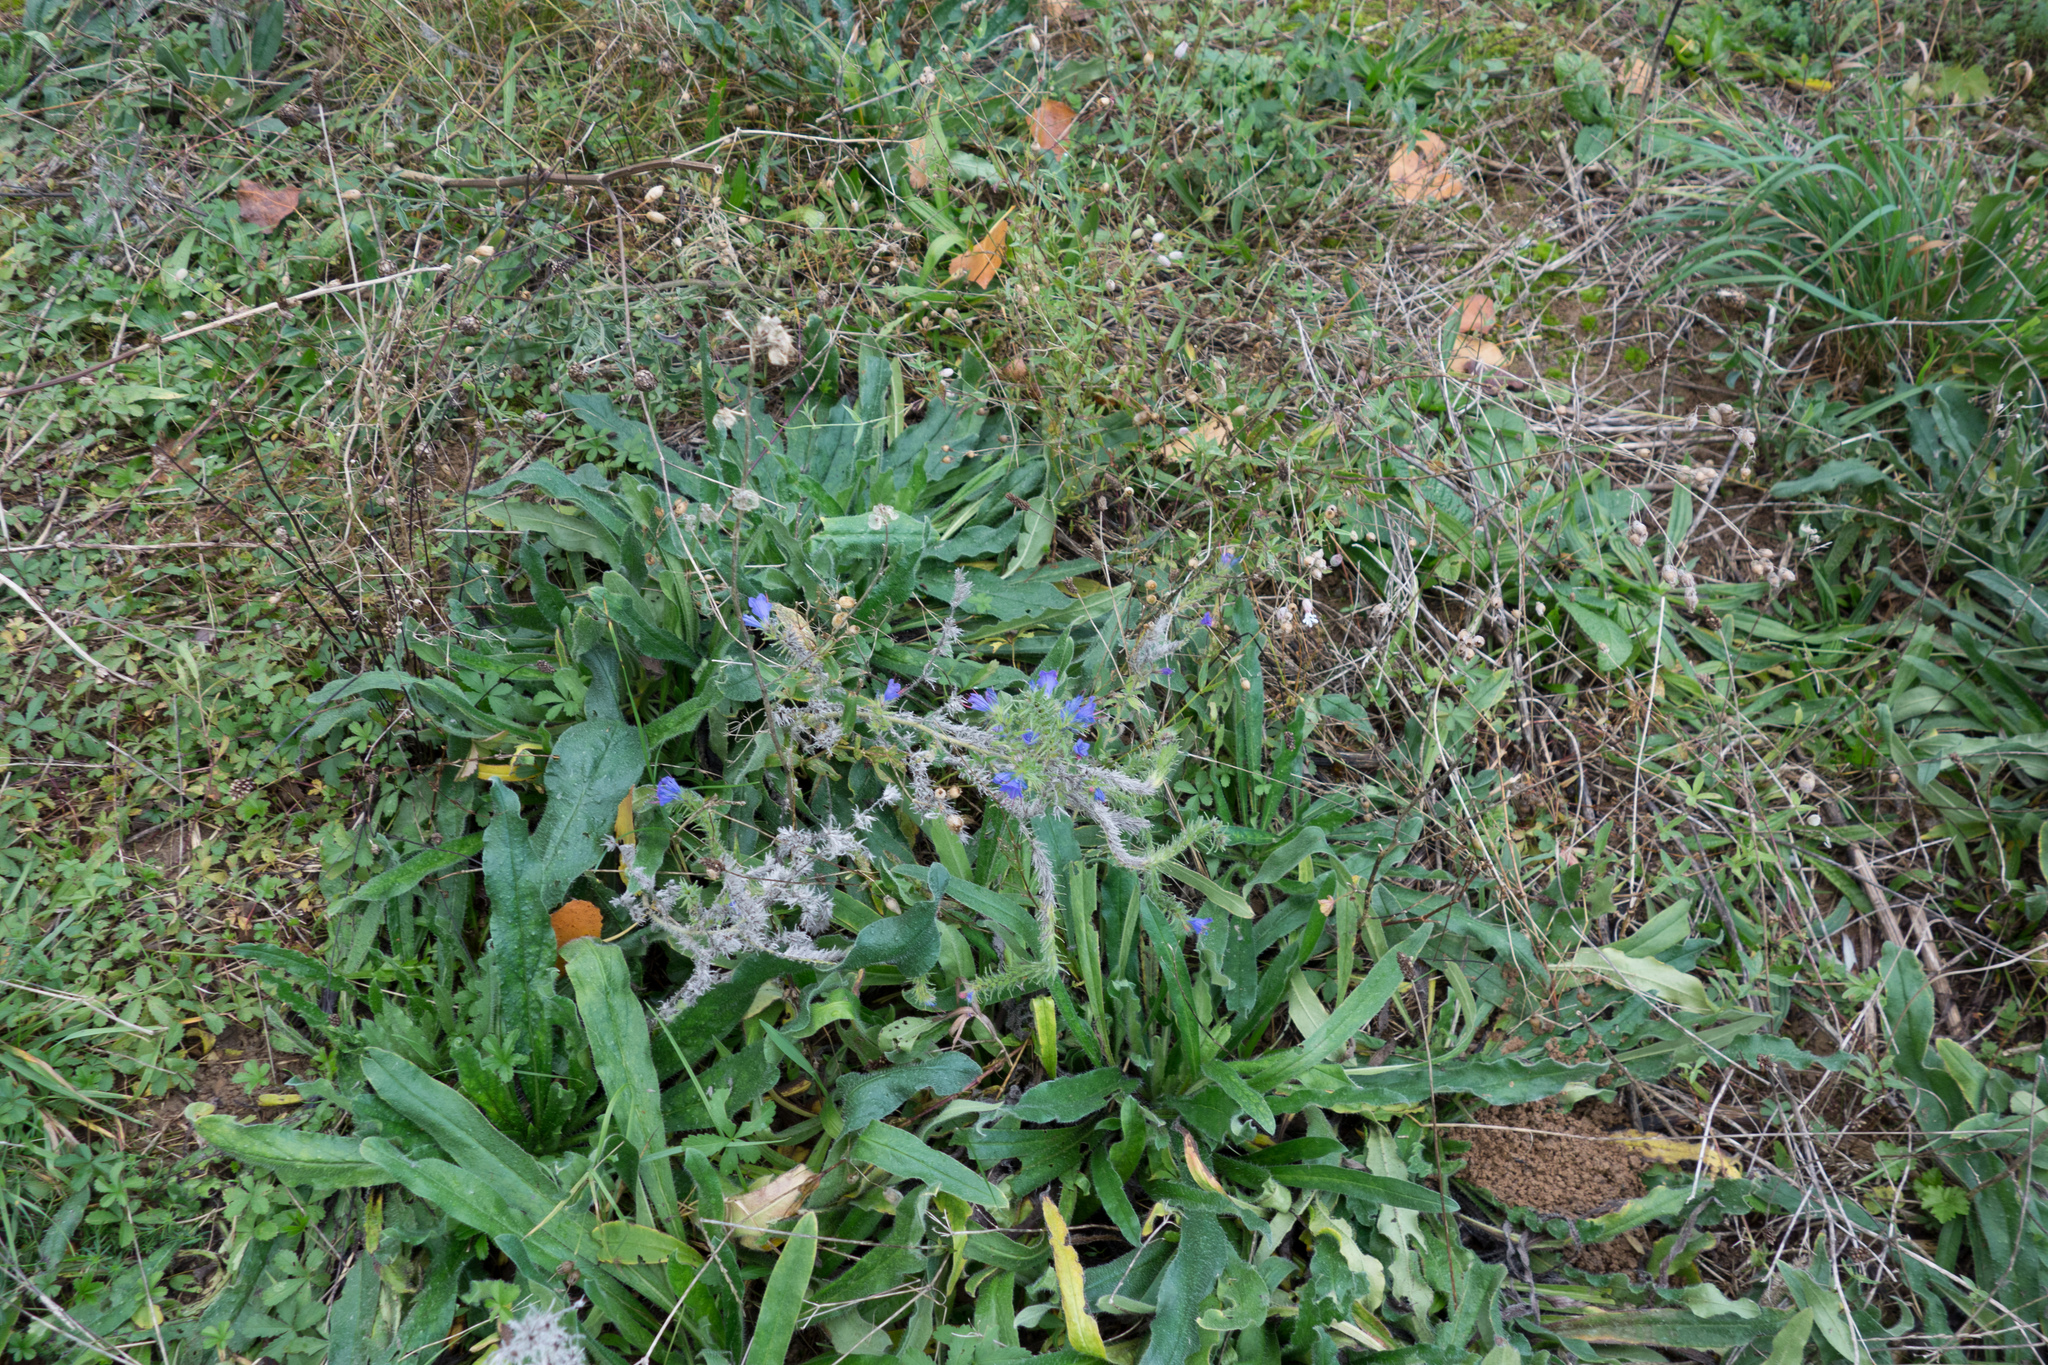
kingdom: Plantae
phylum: Tracheophyta
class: Magnoliopsida
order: Boraginales
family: Boraginaceae
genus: Echium
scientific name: Echium vulgare
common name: Common viper's bugloss
